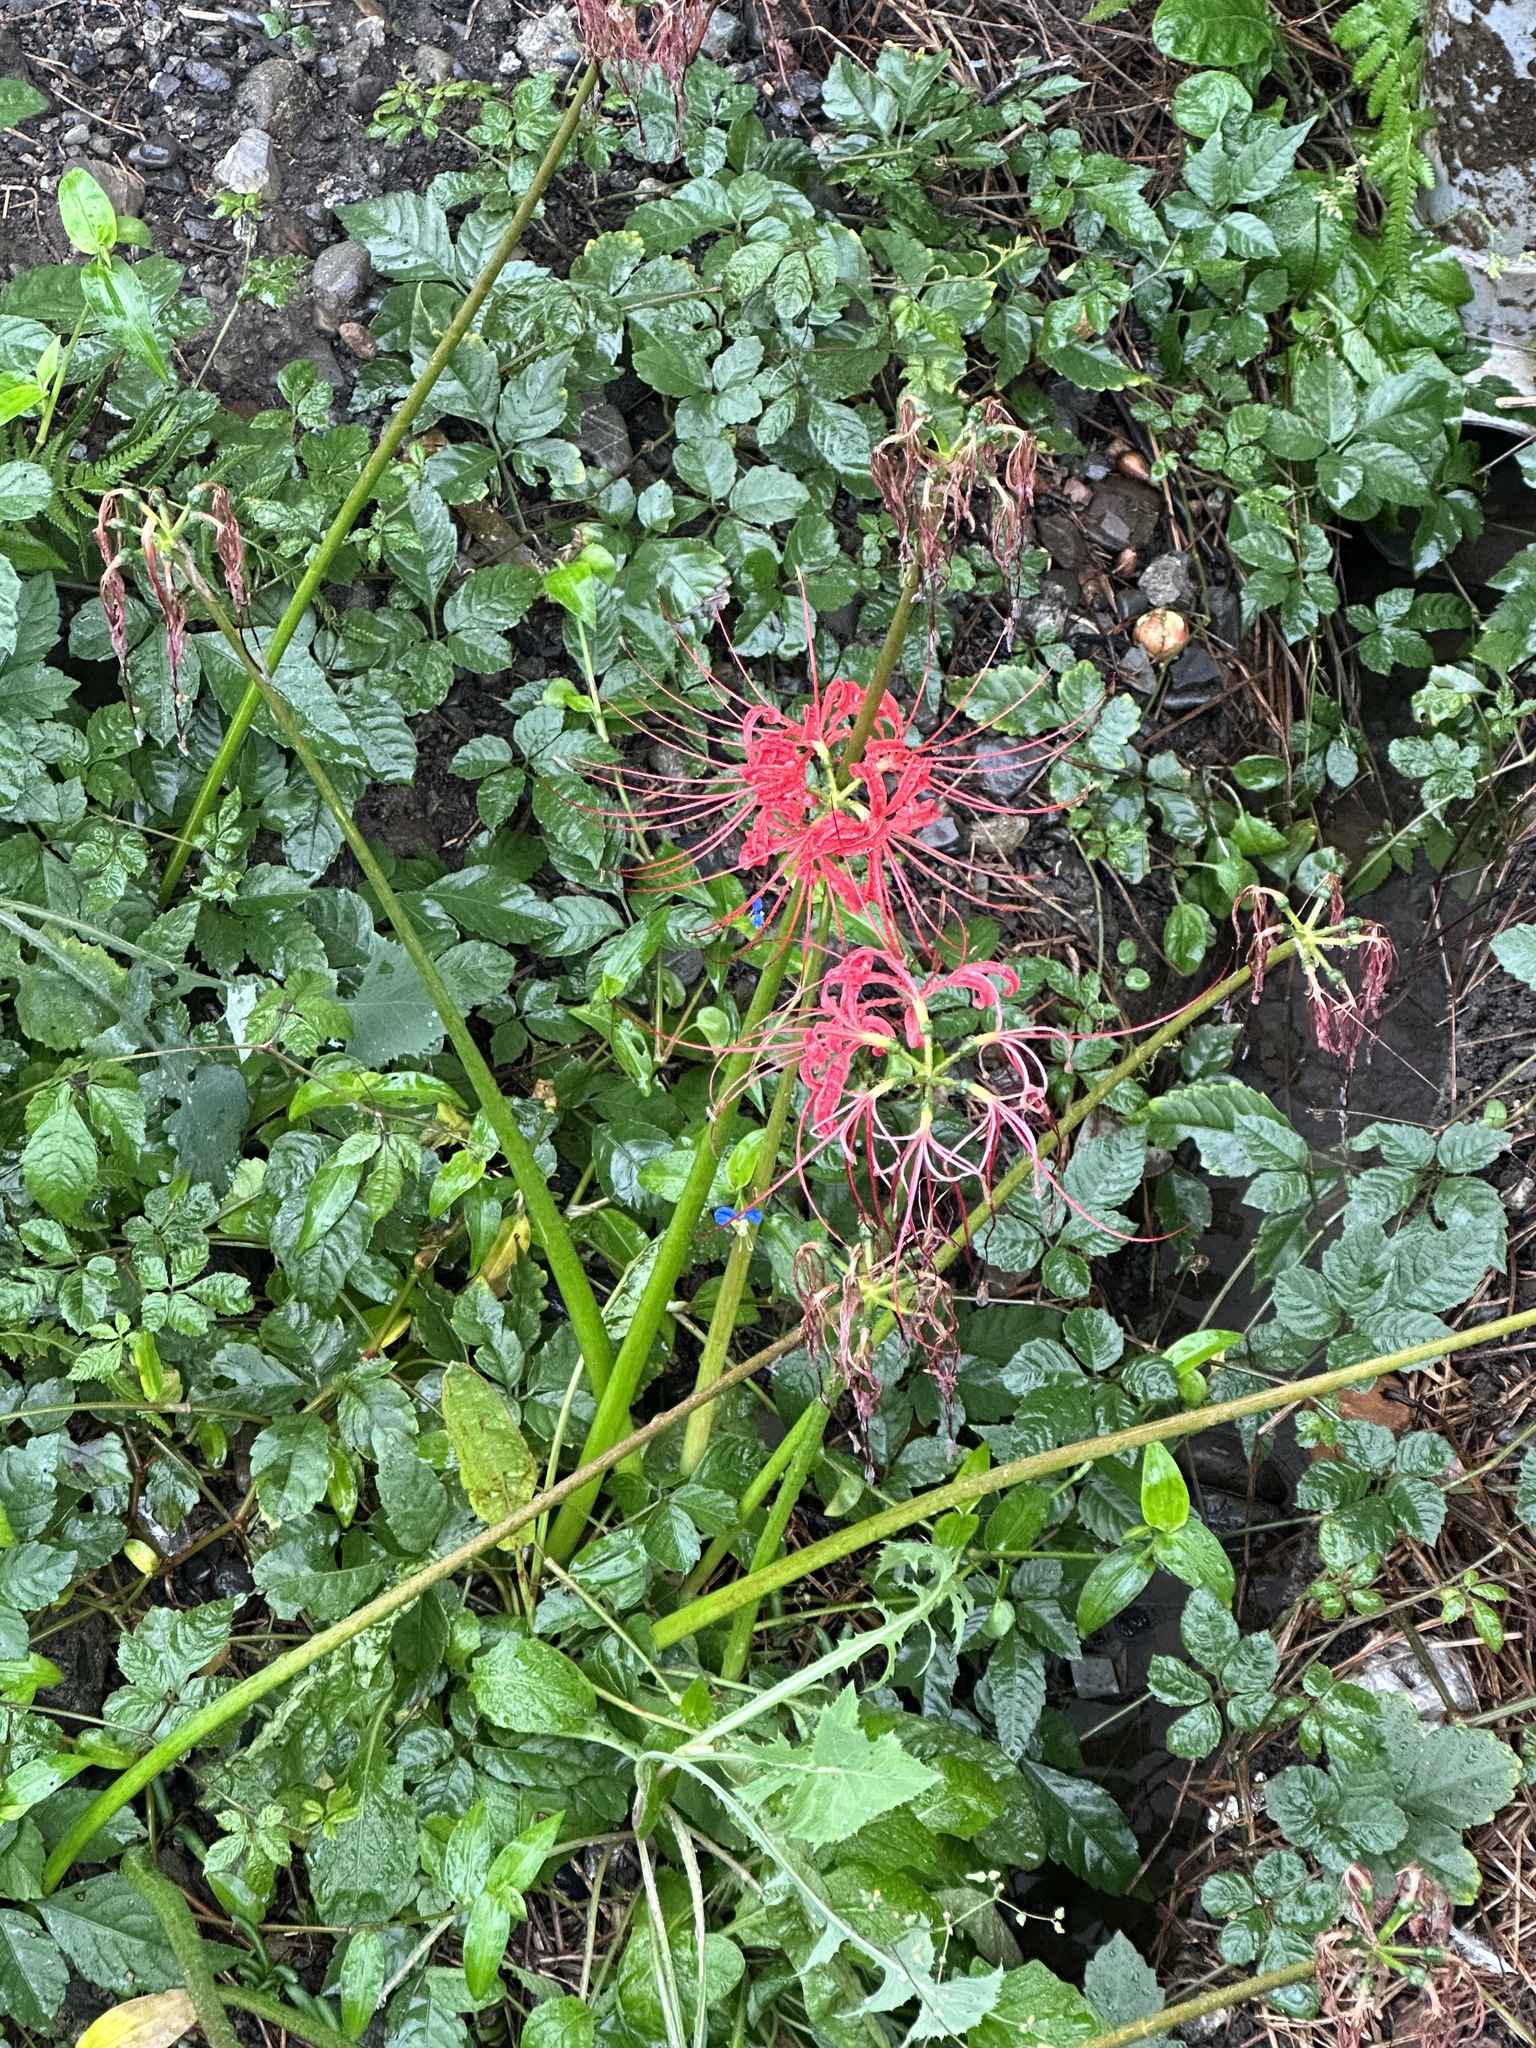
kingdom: Plantae
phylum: Tracheophyta
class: Liliopsida
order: Asparagales
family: Amaryllidaceae
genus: Lycoris
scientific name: Lycoris radiata
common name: Red spider lily
